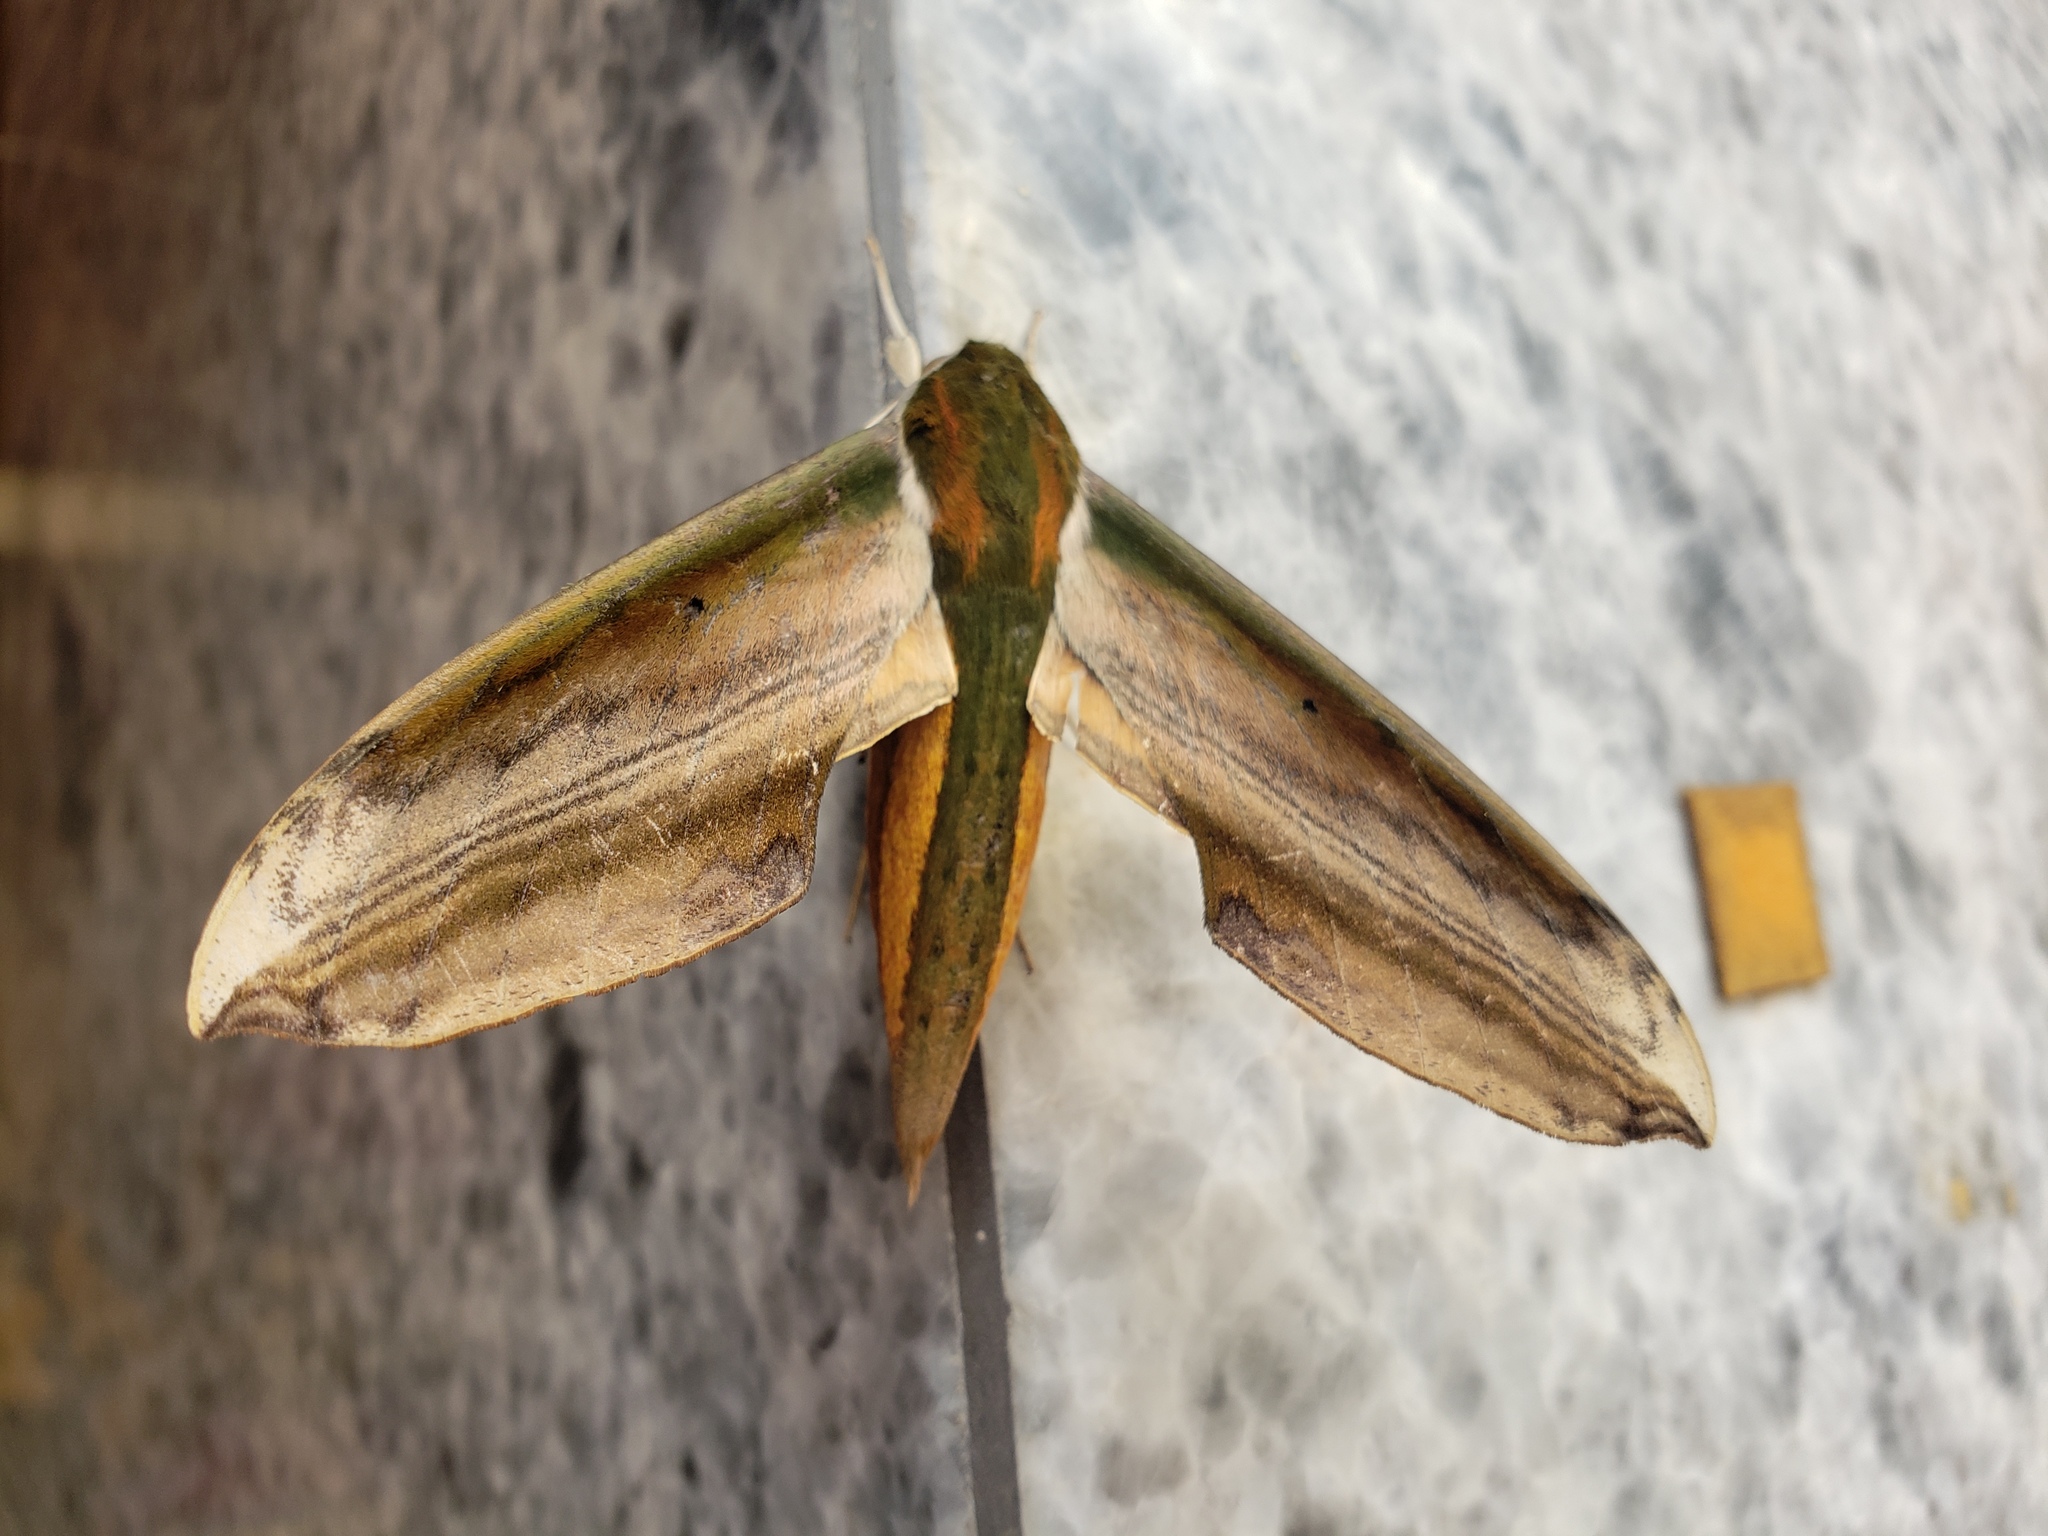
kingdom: Animalia
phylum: Arthropoda
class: Insecta
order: Lepidoptera
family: Sphingidae
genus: Theretra
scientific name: Theretra nessus
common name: Yam hawk moth
